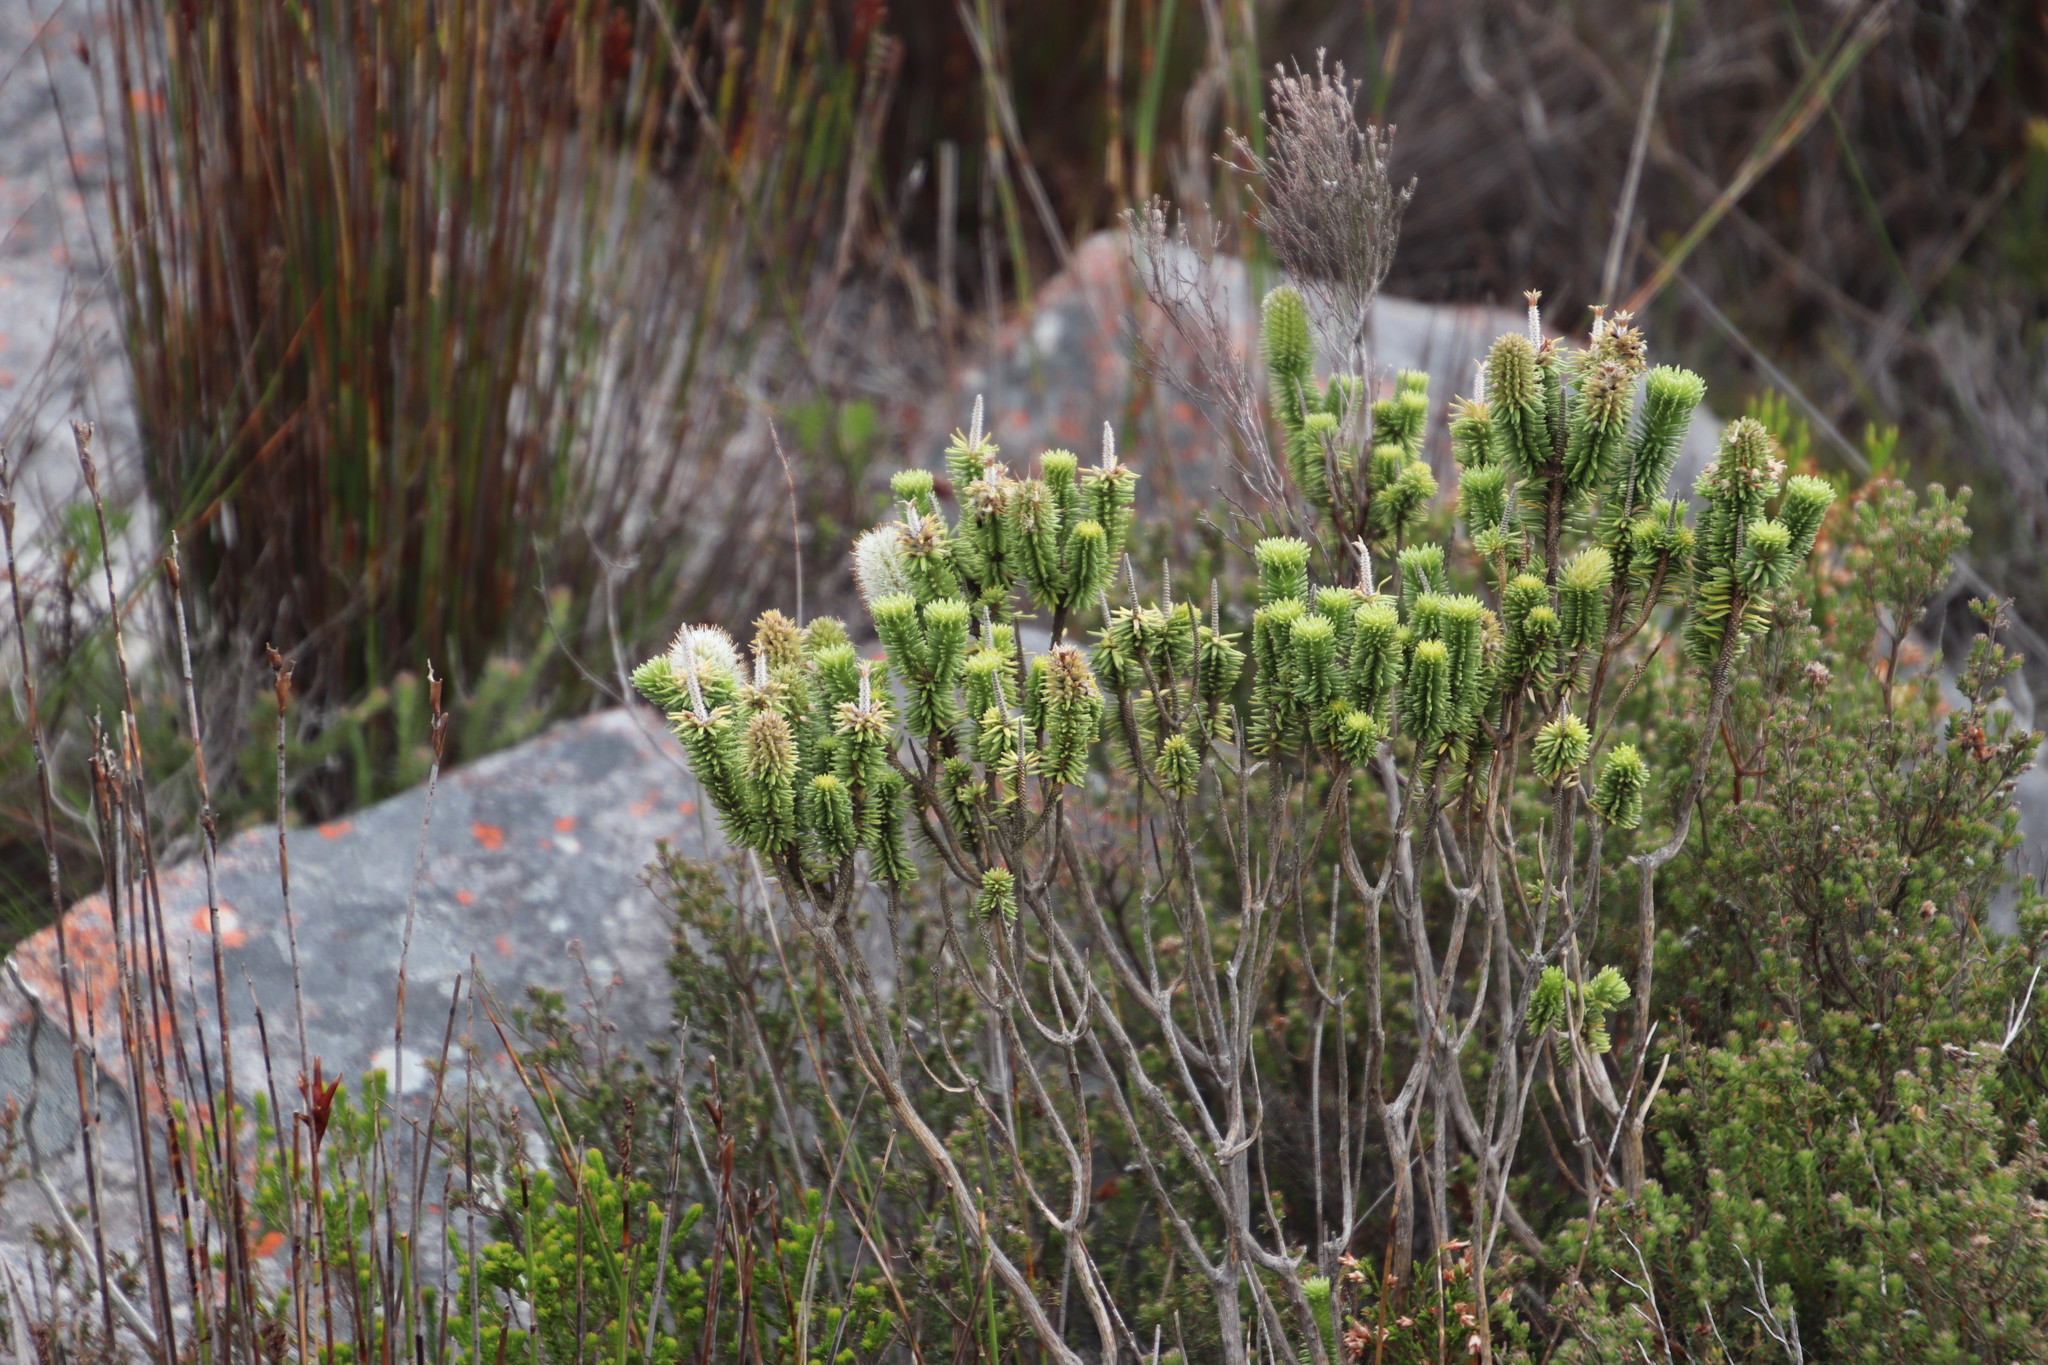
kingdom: Plantae
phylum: Tracheophyta
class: Magnoliopsida
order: Lamiales
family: Stilbaceae
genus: Stilbe
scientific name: Stilbe vestita
